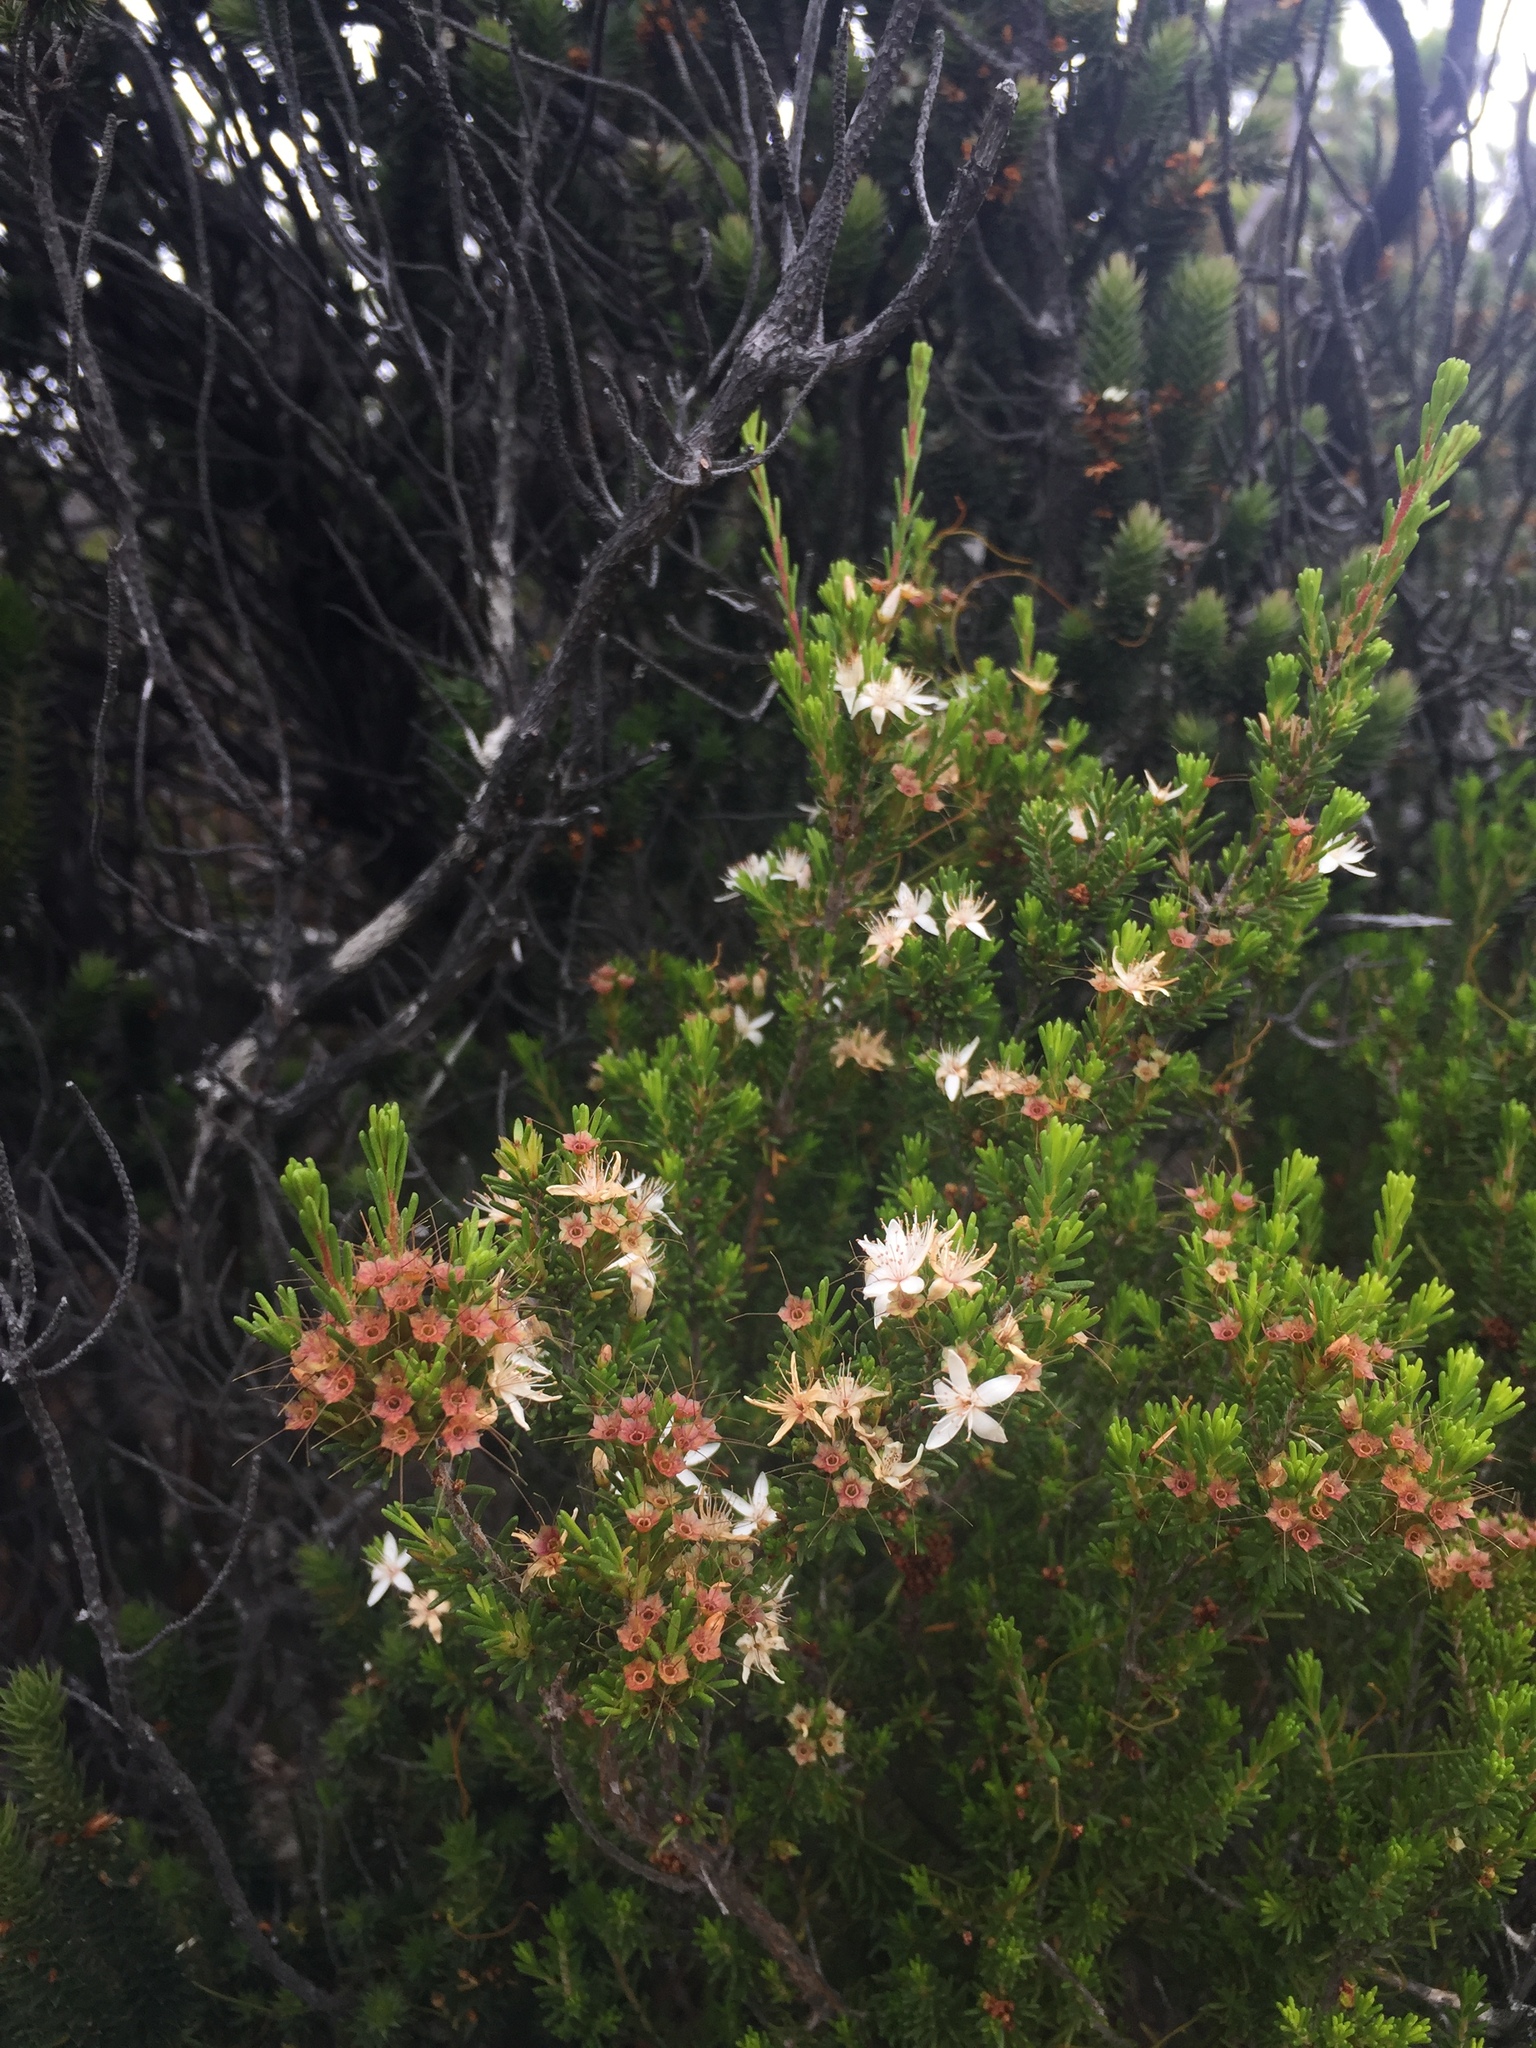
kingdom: Plantae
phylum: Tracheophyta
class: Magnoliopsida
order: Myrtales
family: Myrtaceae
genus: Calytrix
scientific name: Calytrix tetragona
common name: Common fringe myrtle
